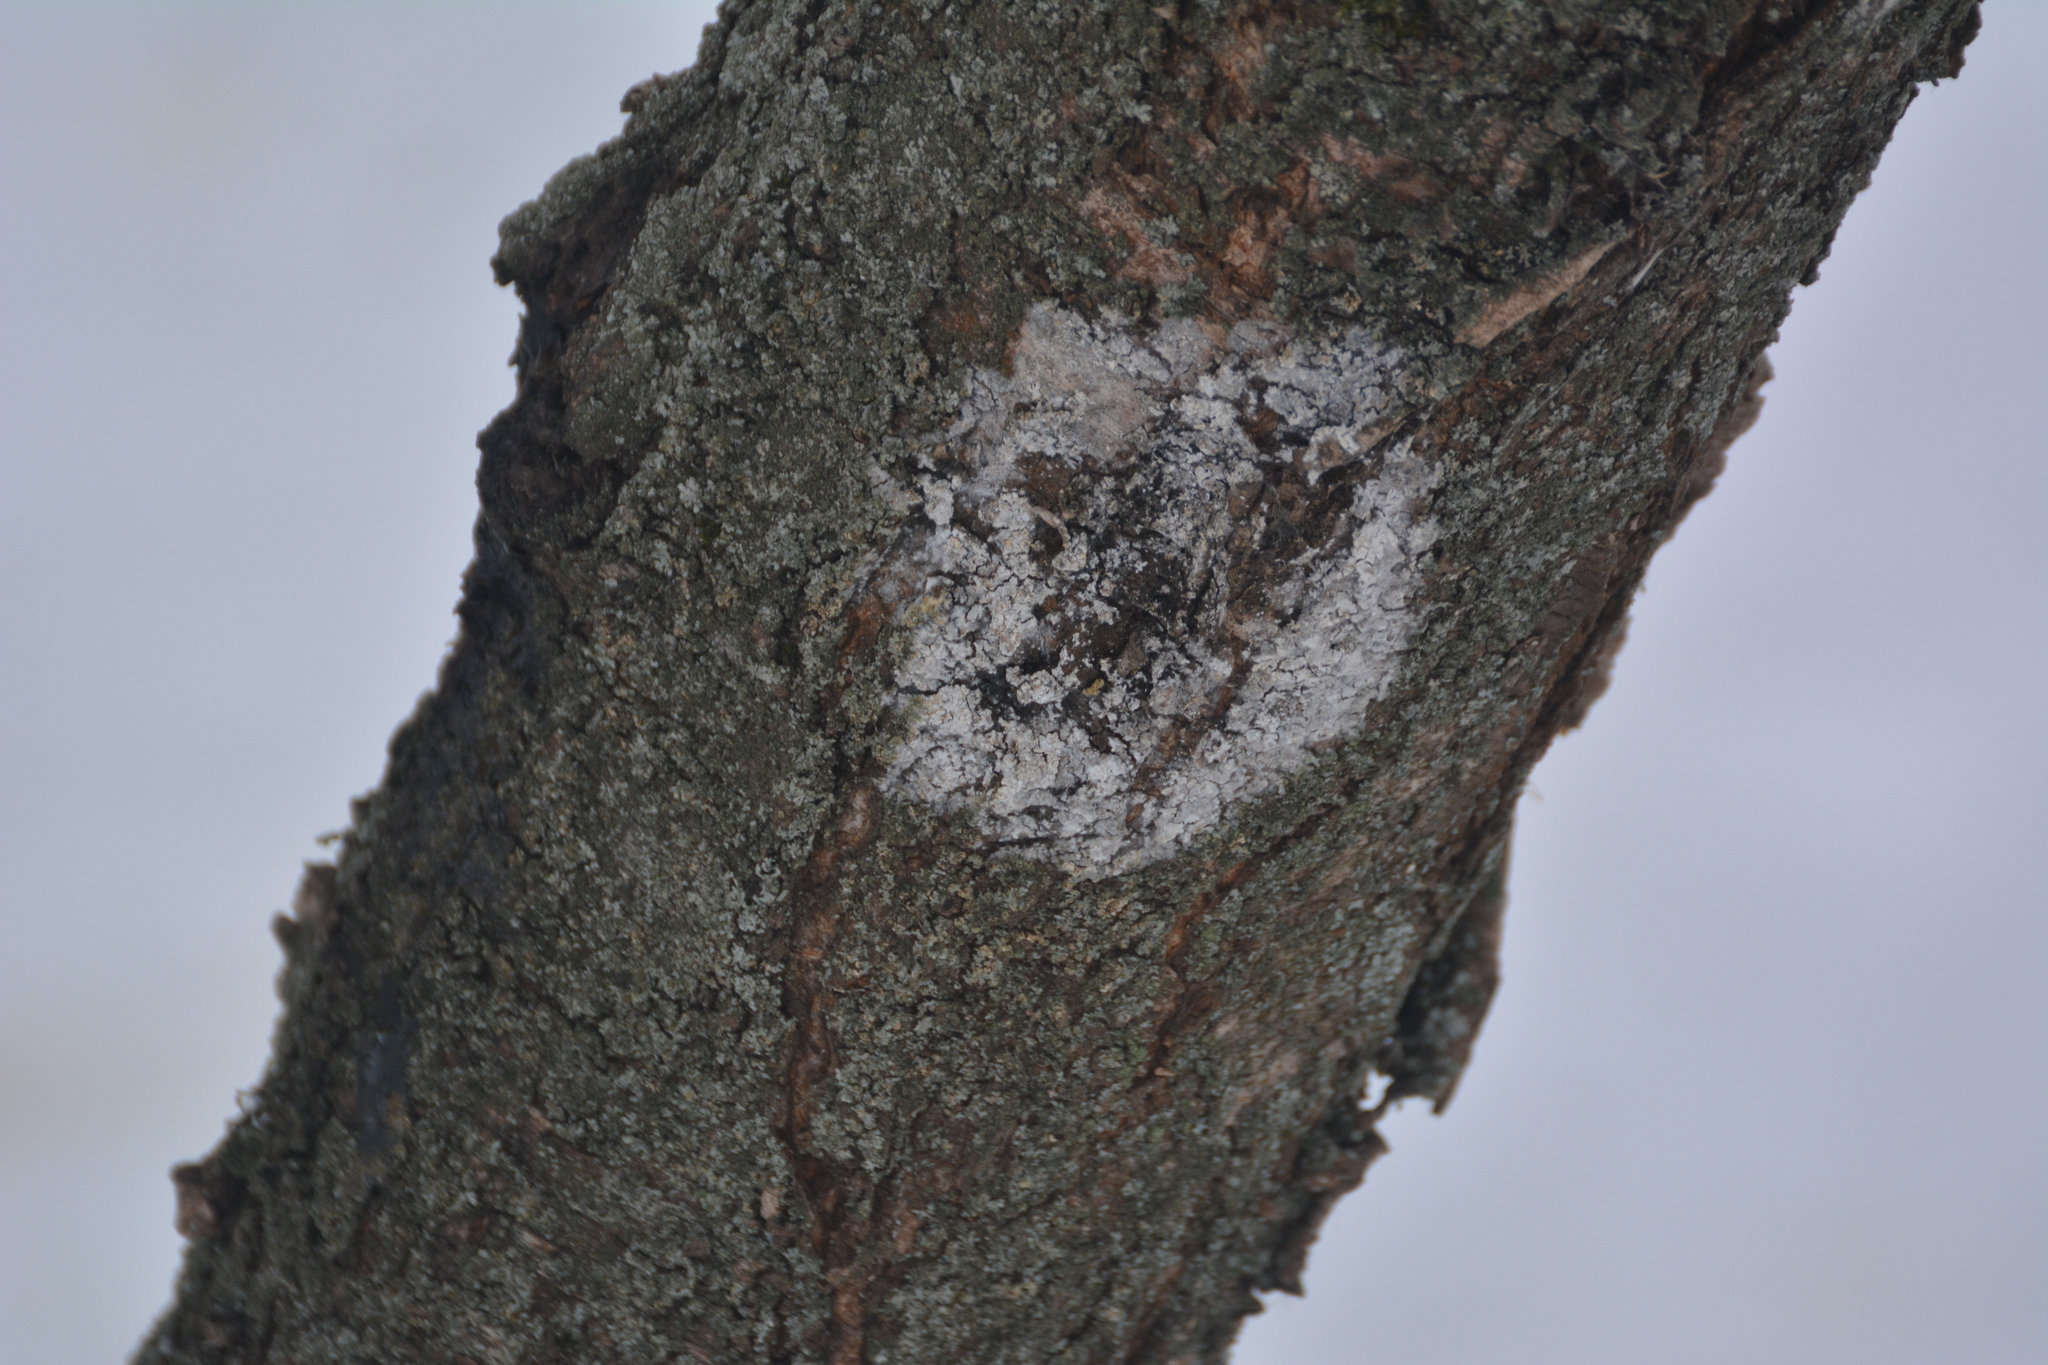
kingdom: Fungi
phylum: Basidiomycota
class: Agaricomycetes
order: Atheliales
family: Atheliaceae
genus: Athelia
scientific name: Athelia arachnoidea
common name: Candelabra duster
